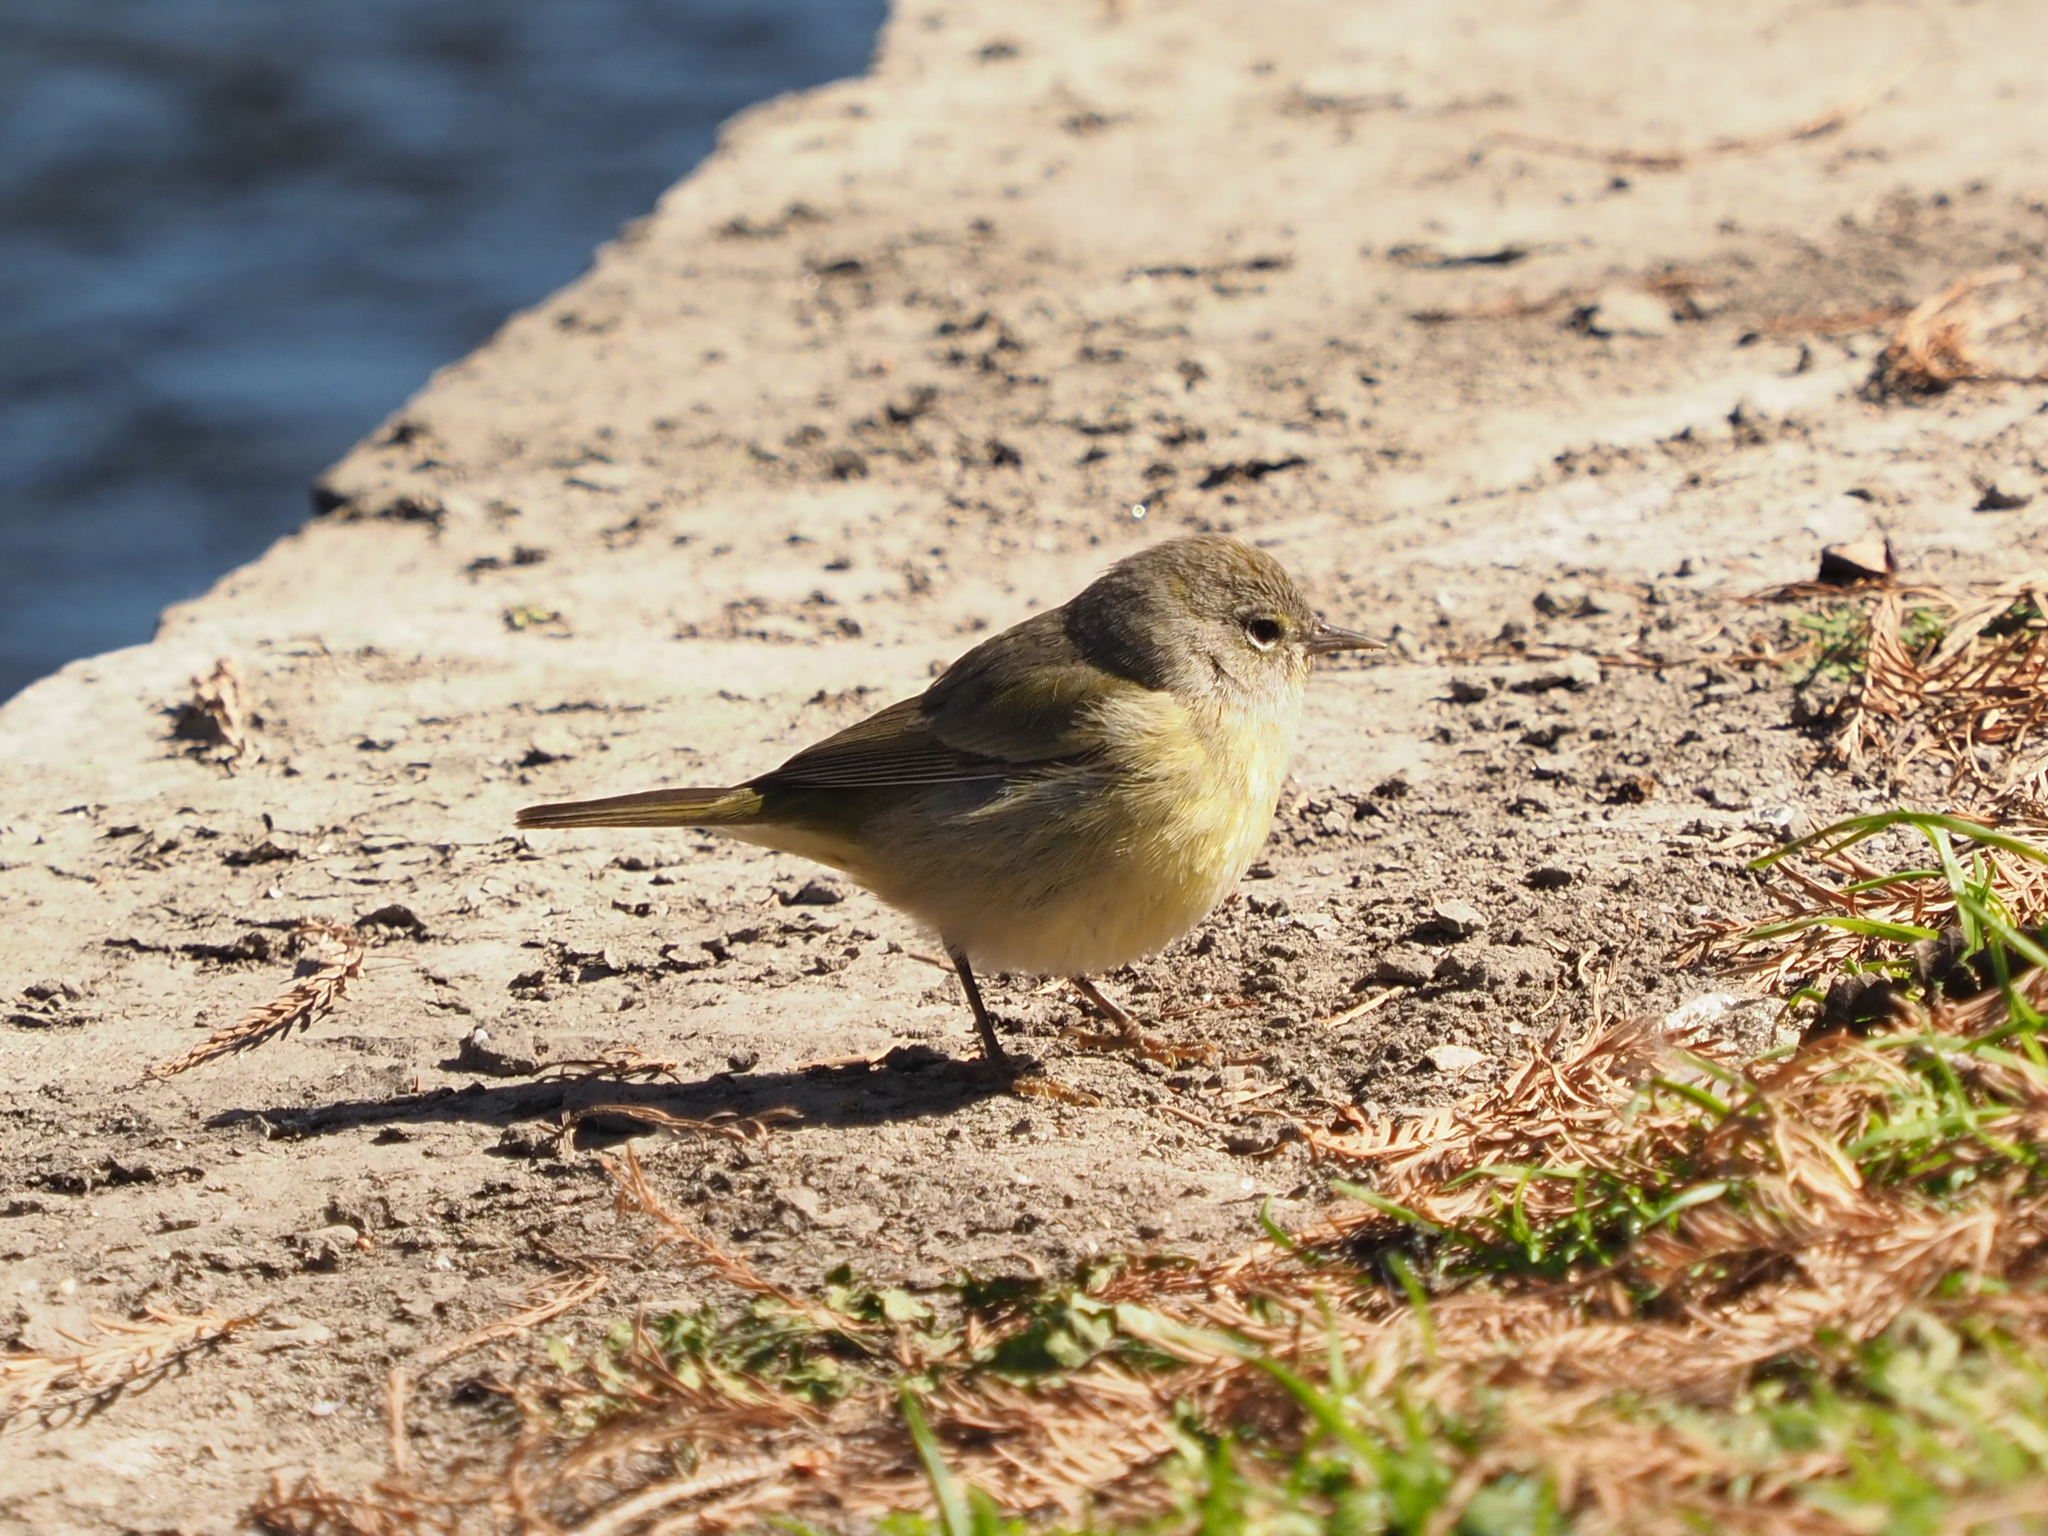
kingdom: Animalia
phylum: Chordata
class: Aves
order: Passeriformes
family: Parulidae
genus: Leiothlypis
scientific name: Leiothlypis celata
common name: Orange-crowned warbler
